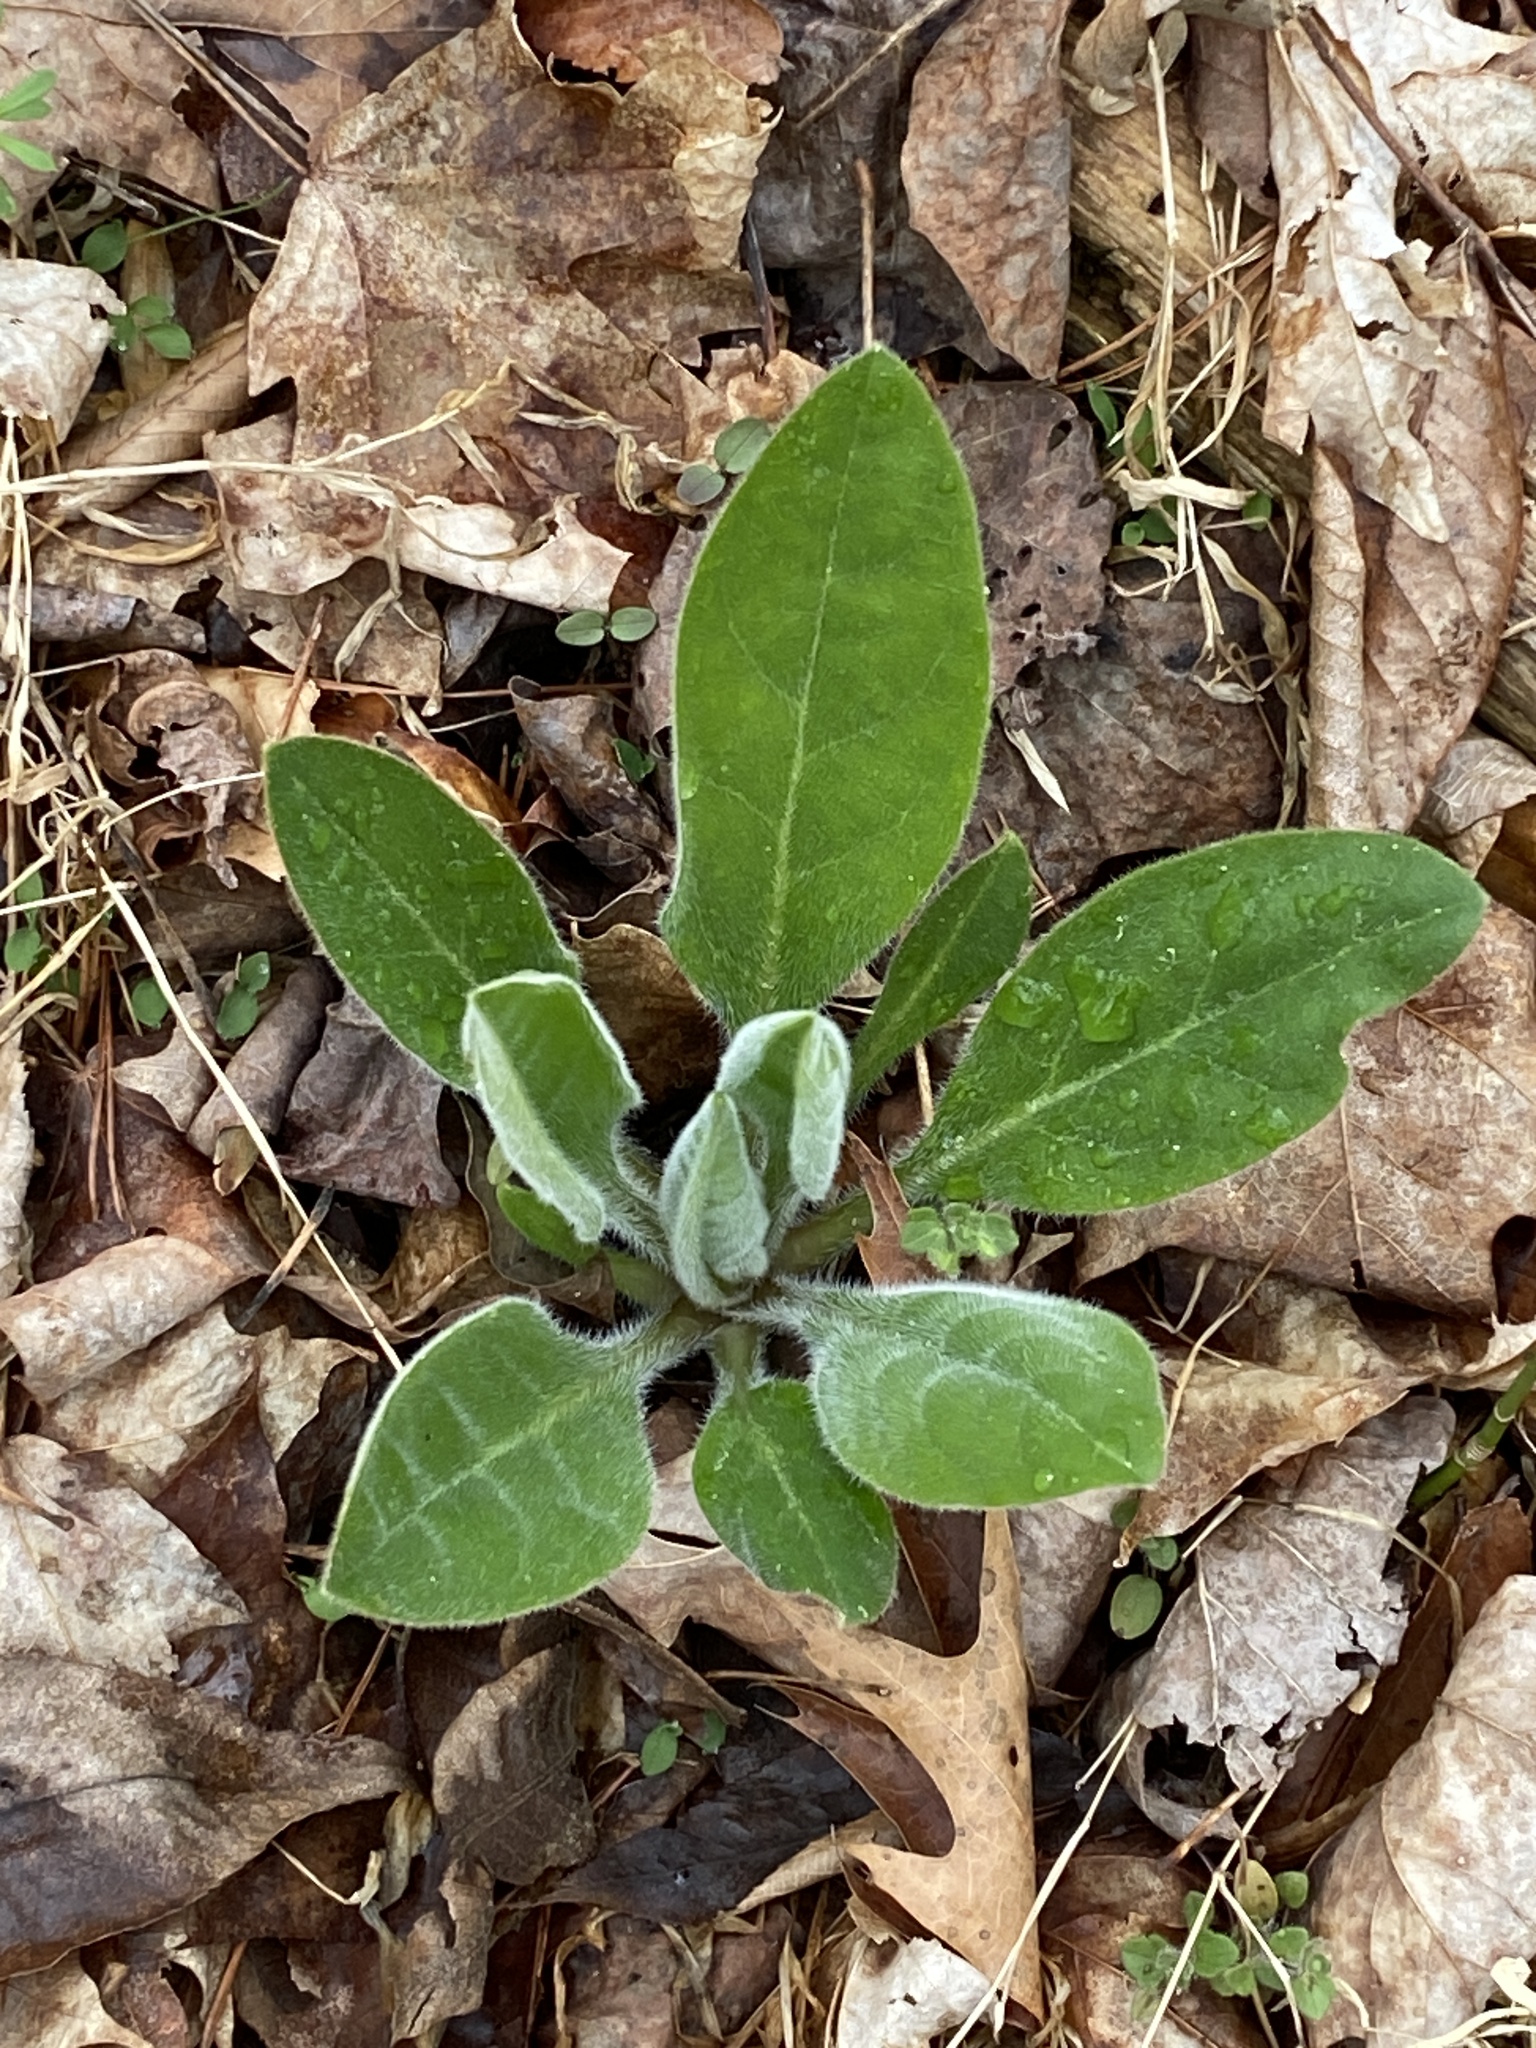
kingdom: Plantae
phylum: Tracheophyta
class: Magnoliopsida
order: Boraginales
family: Boraginaceae
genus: Andersonglossum
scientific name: Andersonglossum virginianum
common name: Wild comfrey
